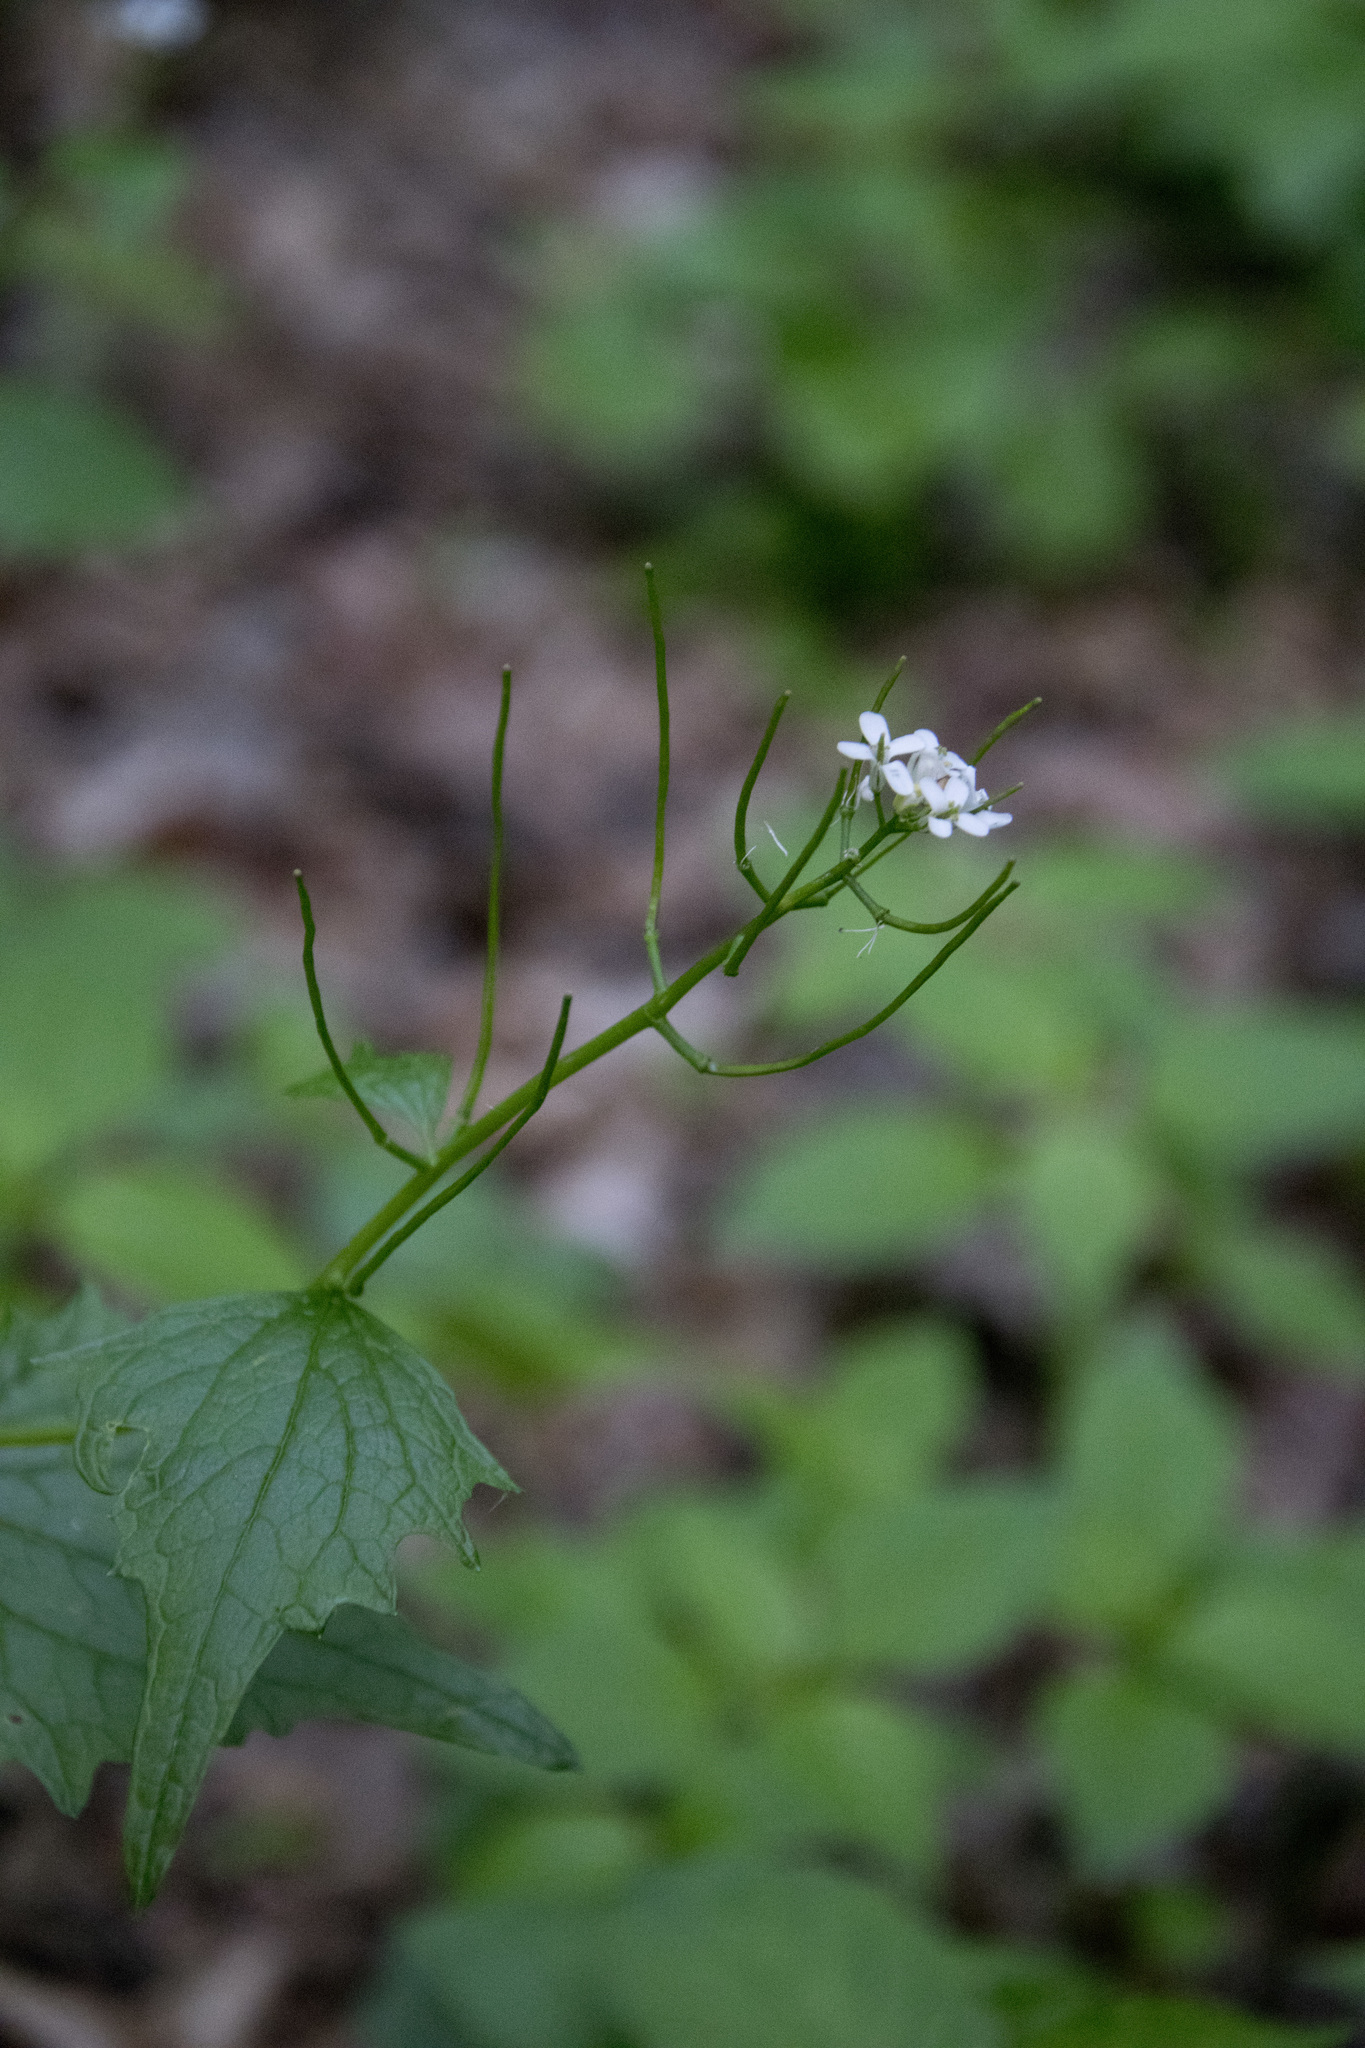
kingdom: Plantae
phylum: Tracheophyta
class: Magnoliopsida
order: Brassicales
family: Brassicaceae
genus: Alliaria
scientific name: Alliaria petiolata
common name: Garlic mustard
